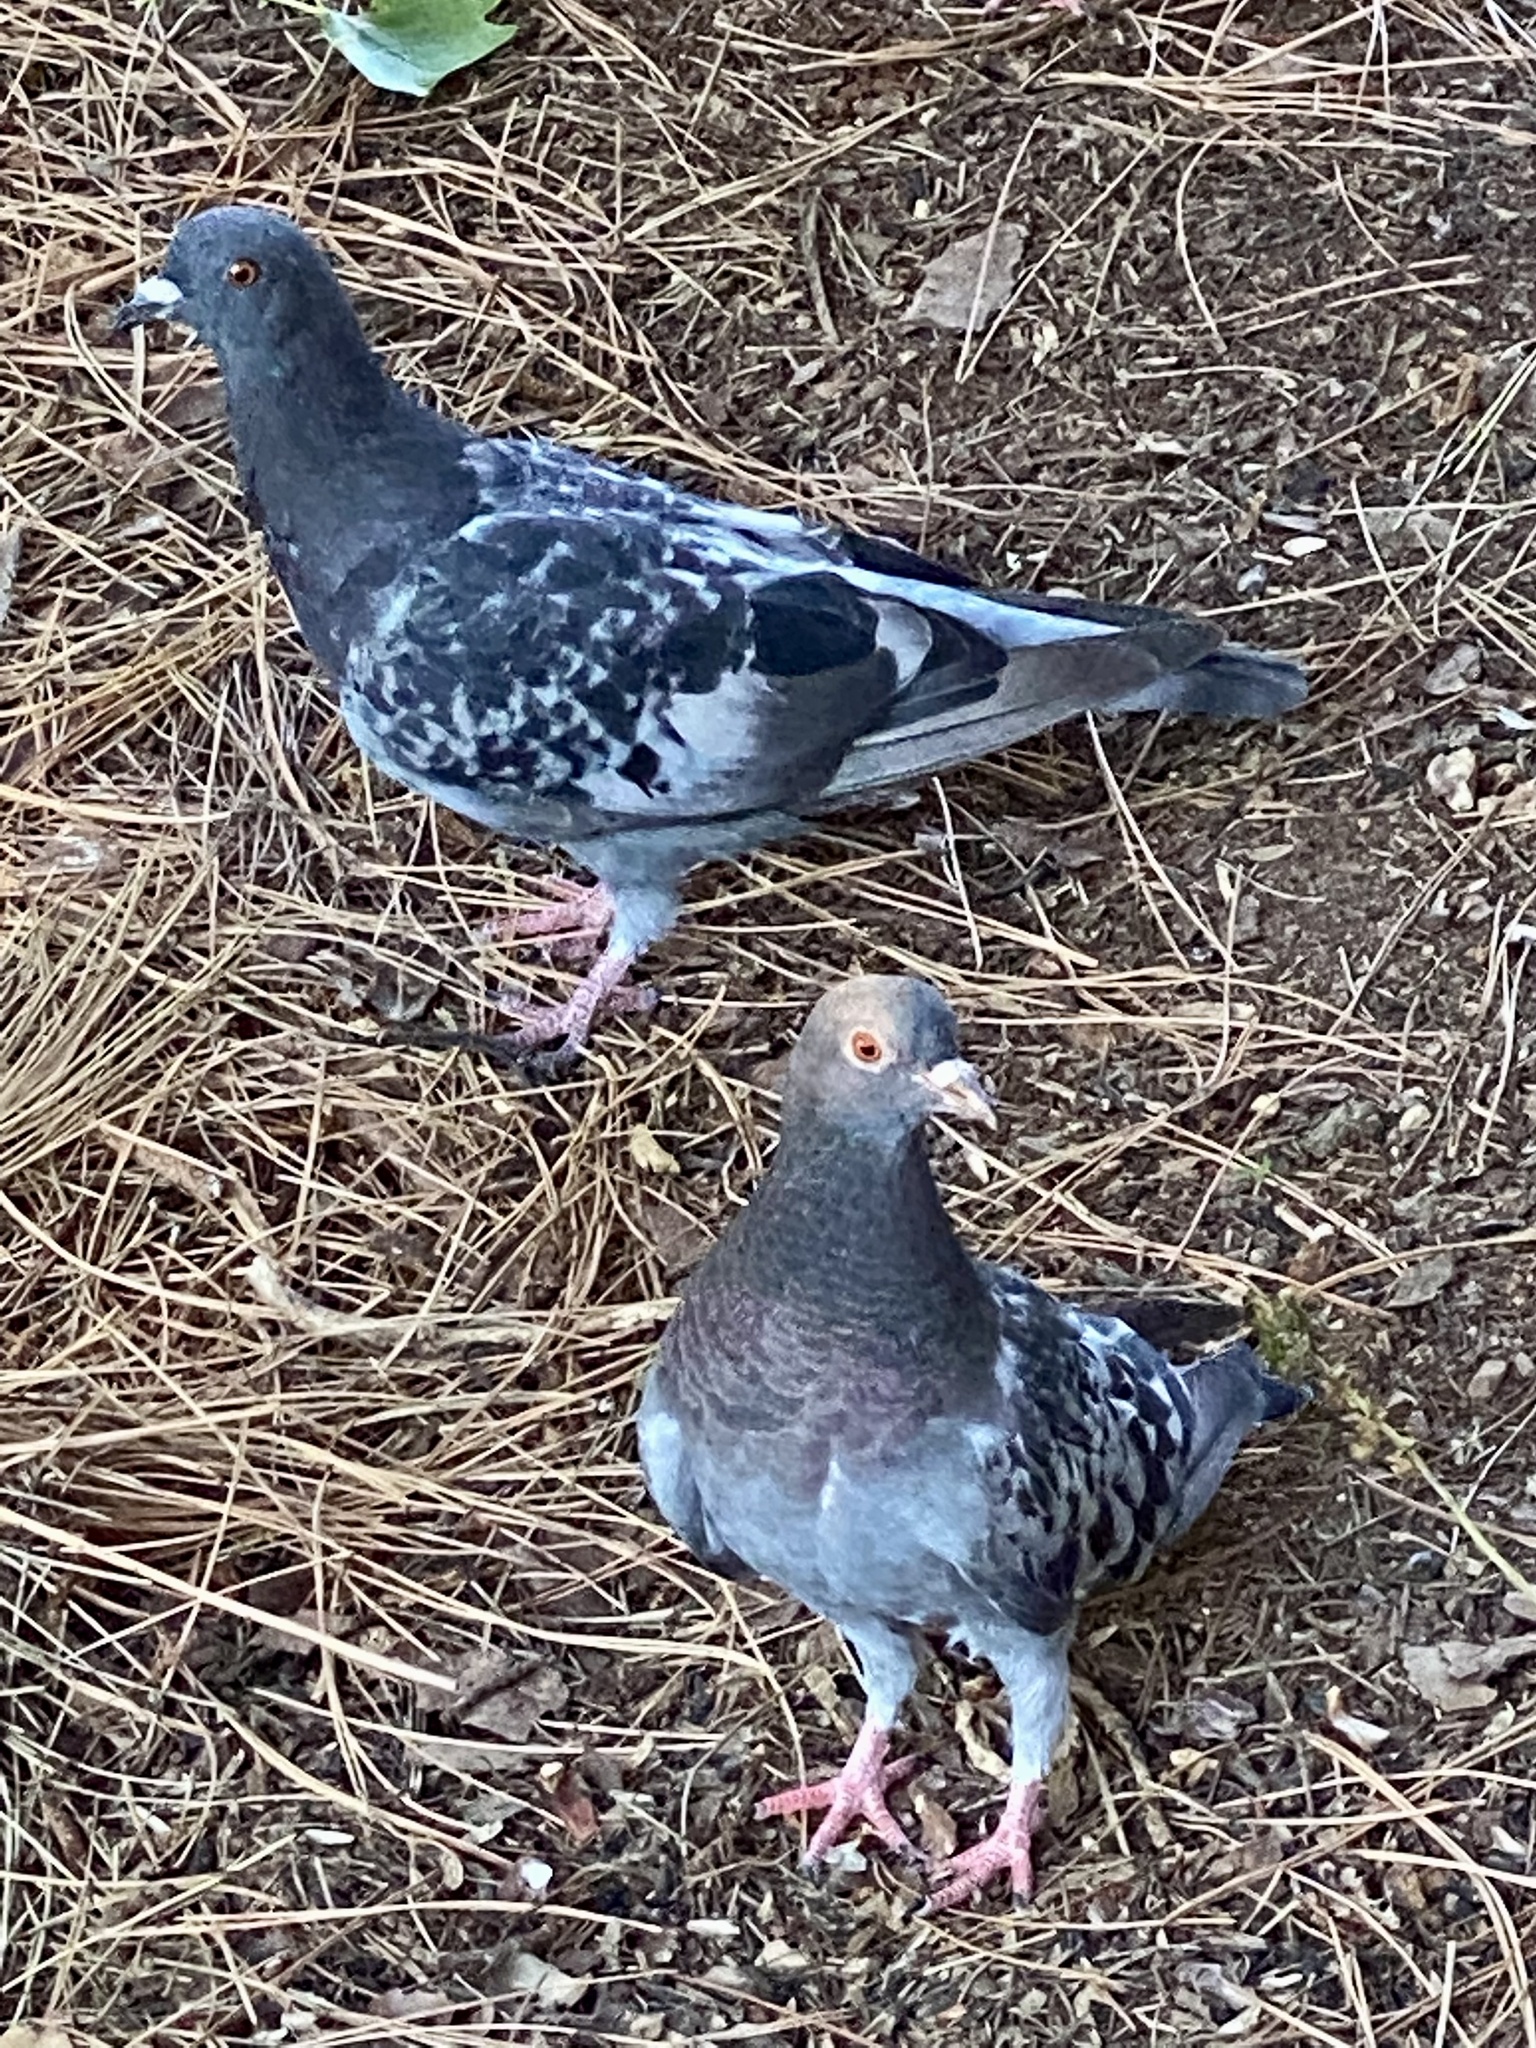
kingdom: Animalia
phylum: Chordata
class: Aves
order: Columbiformes
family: Columbidae
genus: Columba
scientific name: Columba livia
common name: Rock pigeon
